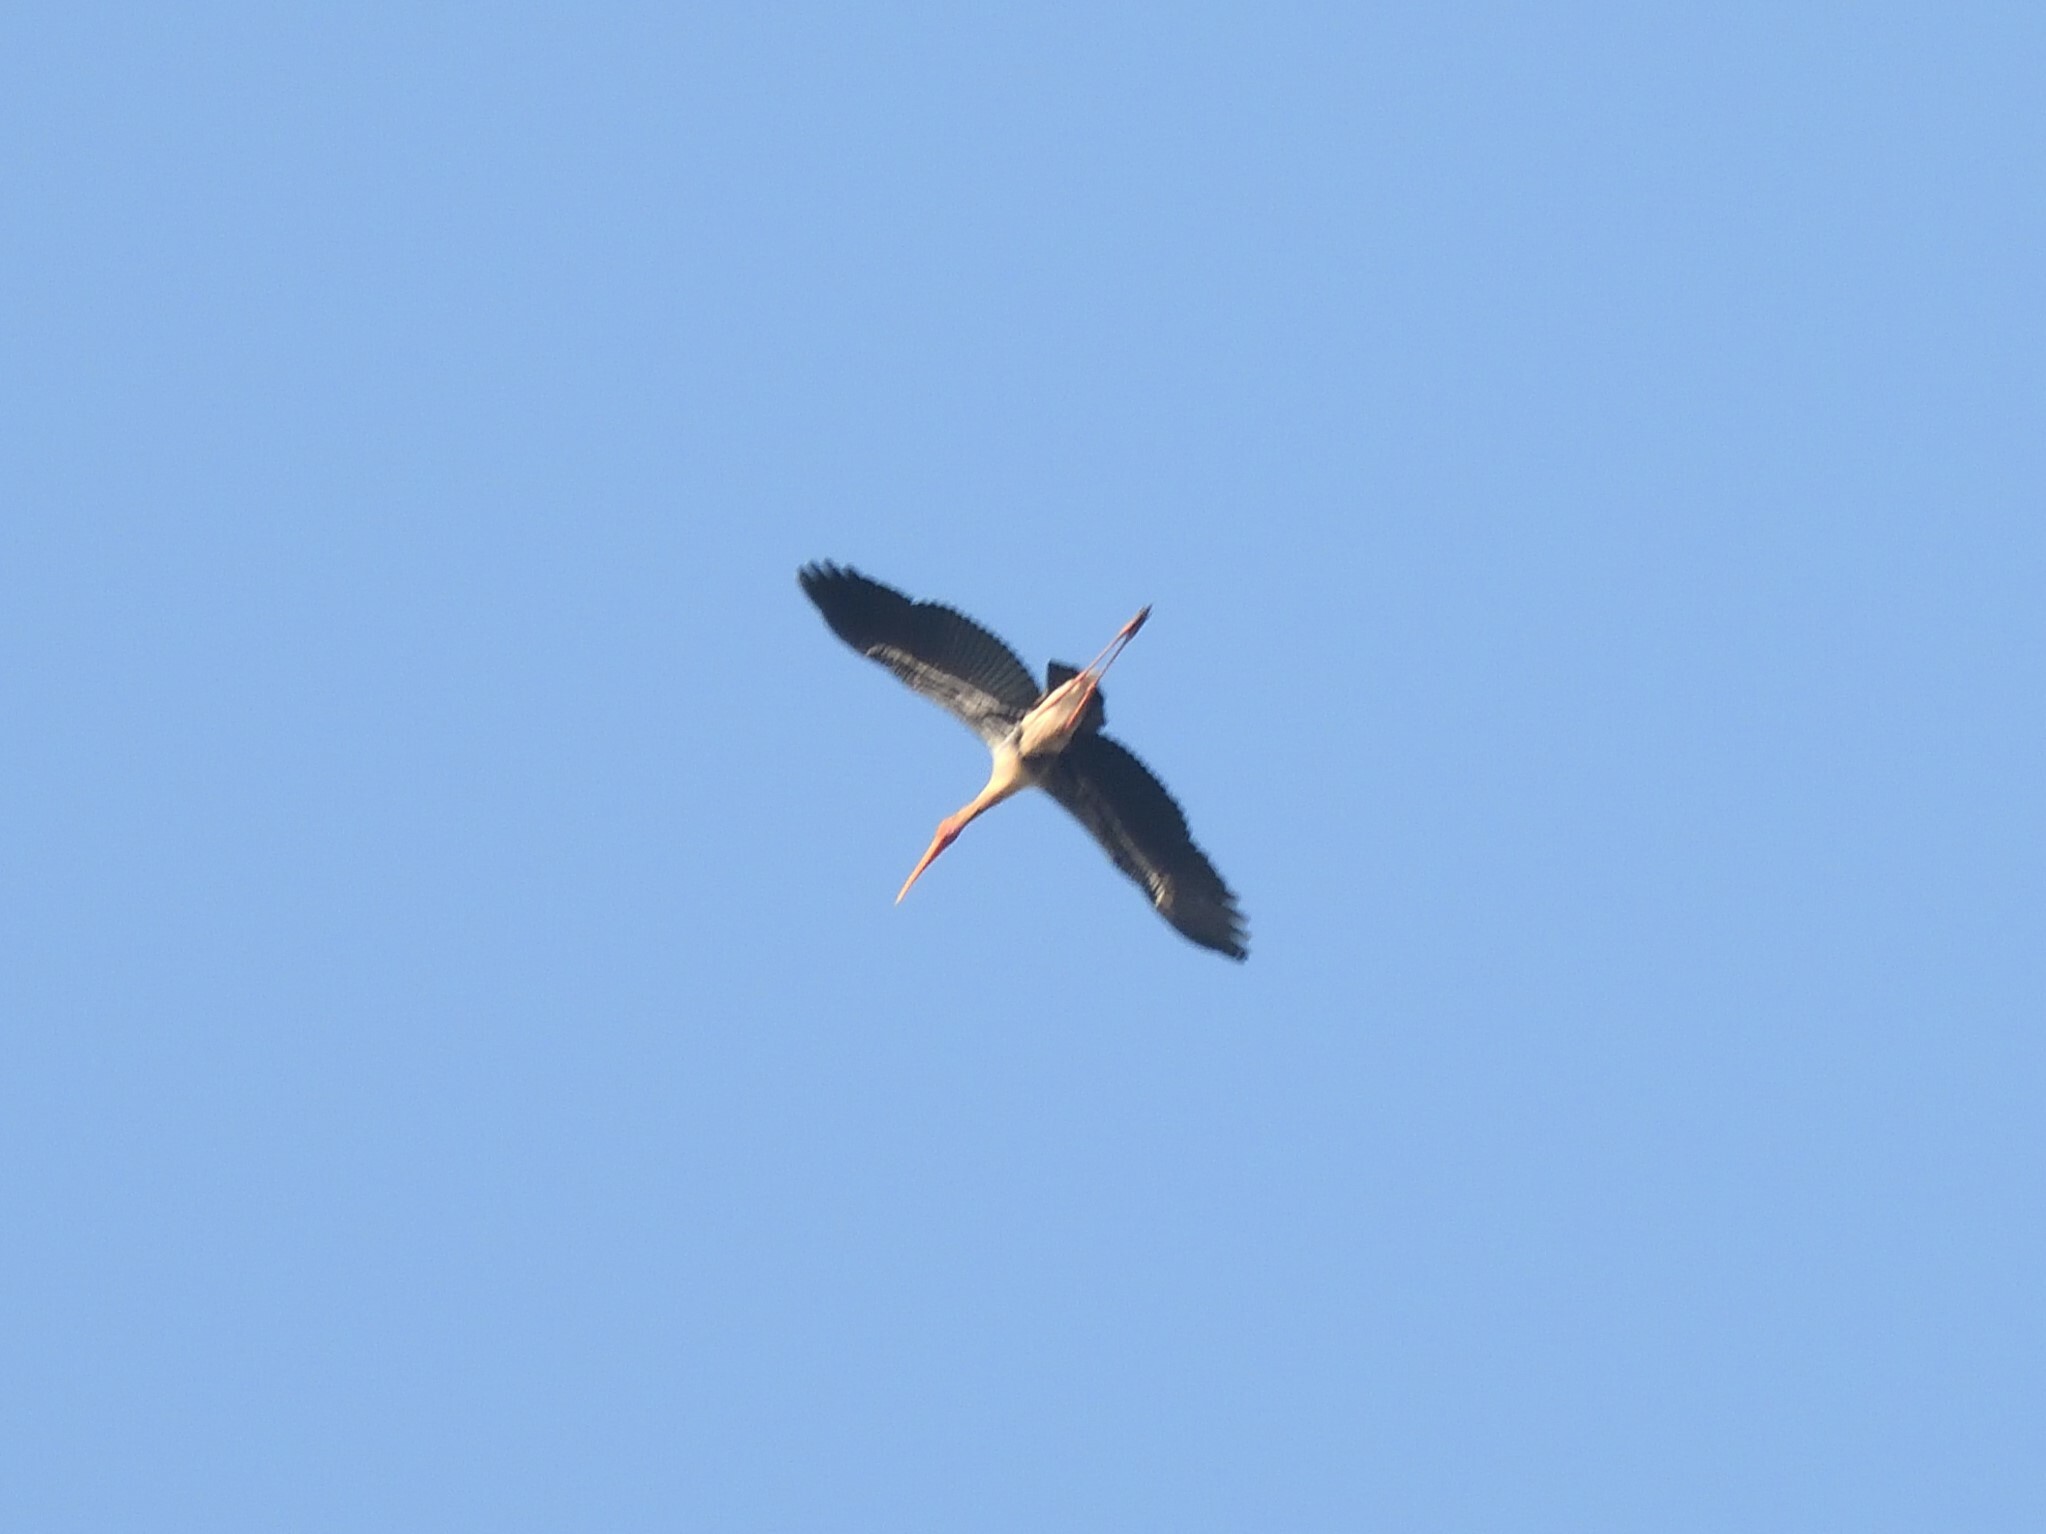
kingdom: Animalia
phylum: Chordata
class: Aves
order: Ciconiiformes
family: Ciconiidae
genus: Mycteria
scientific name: Mycteria leucocephala
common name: Painted stork
